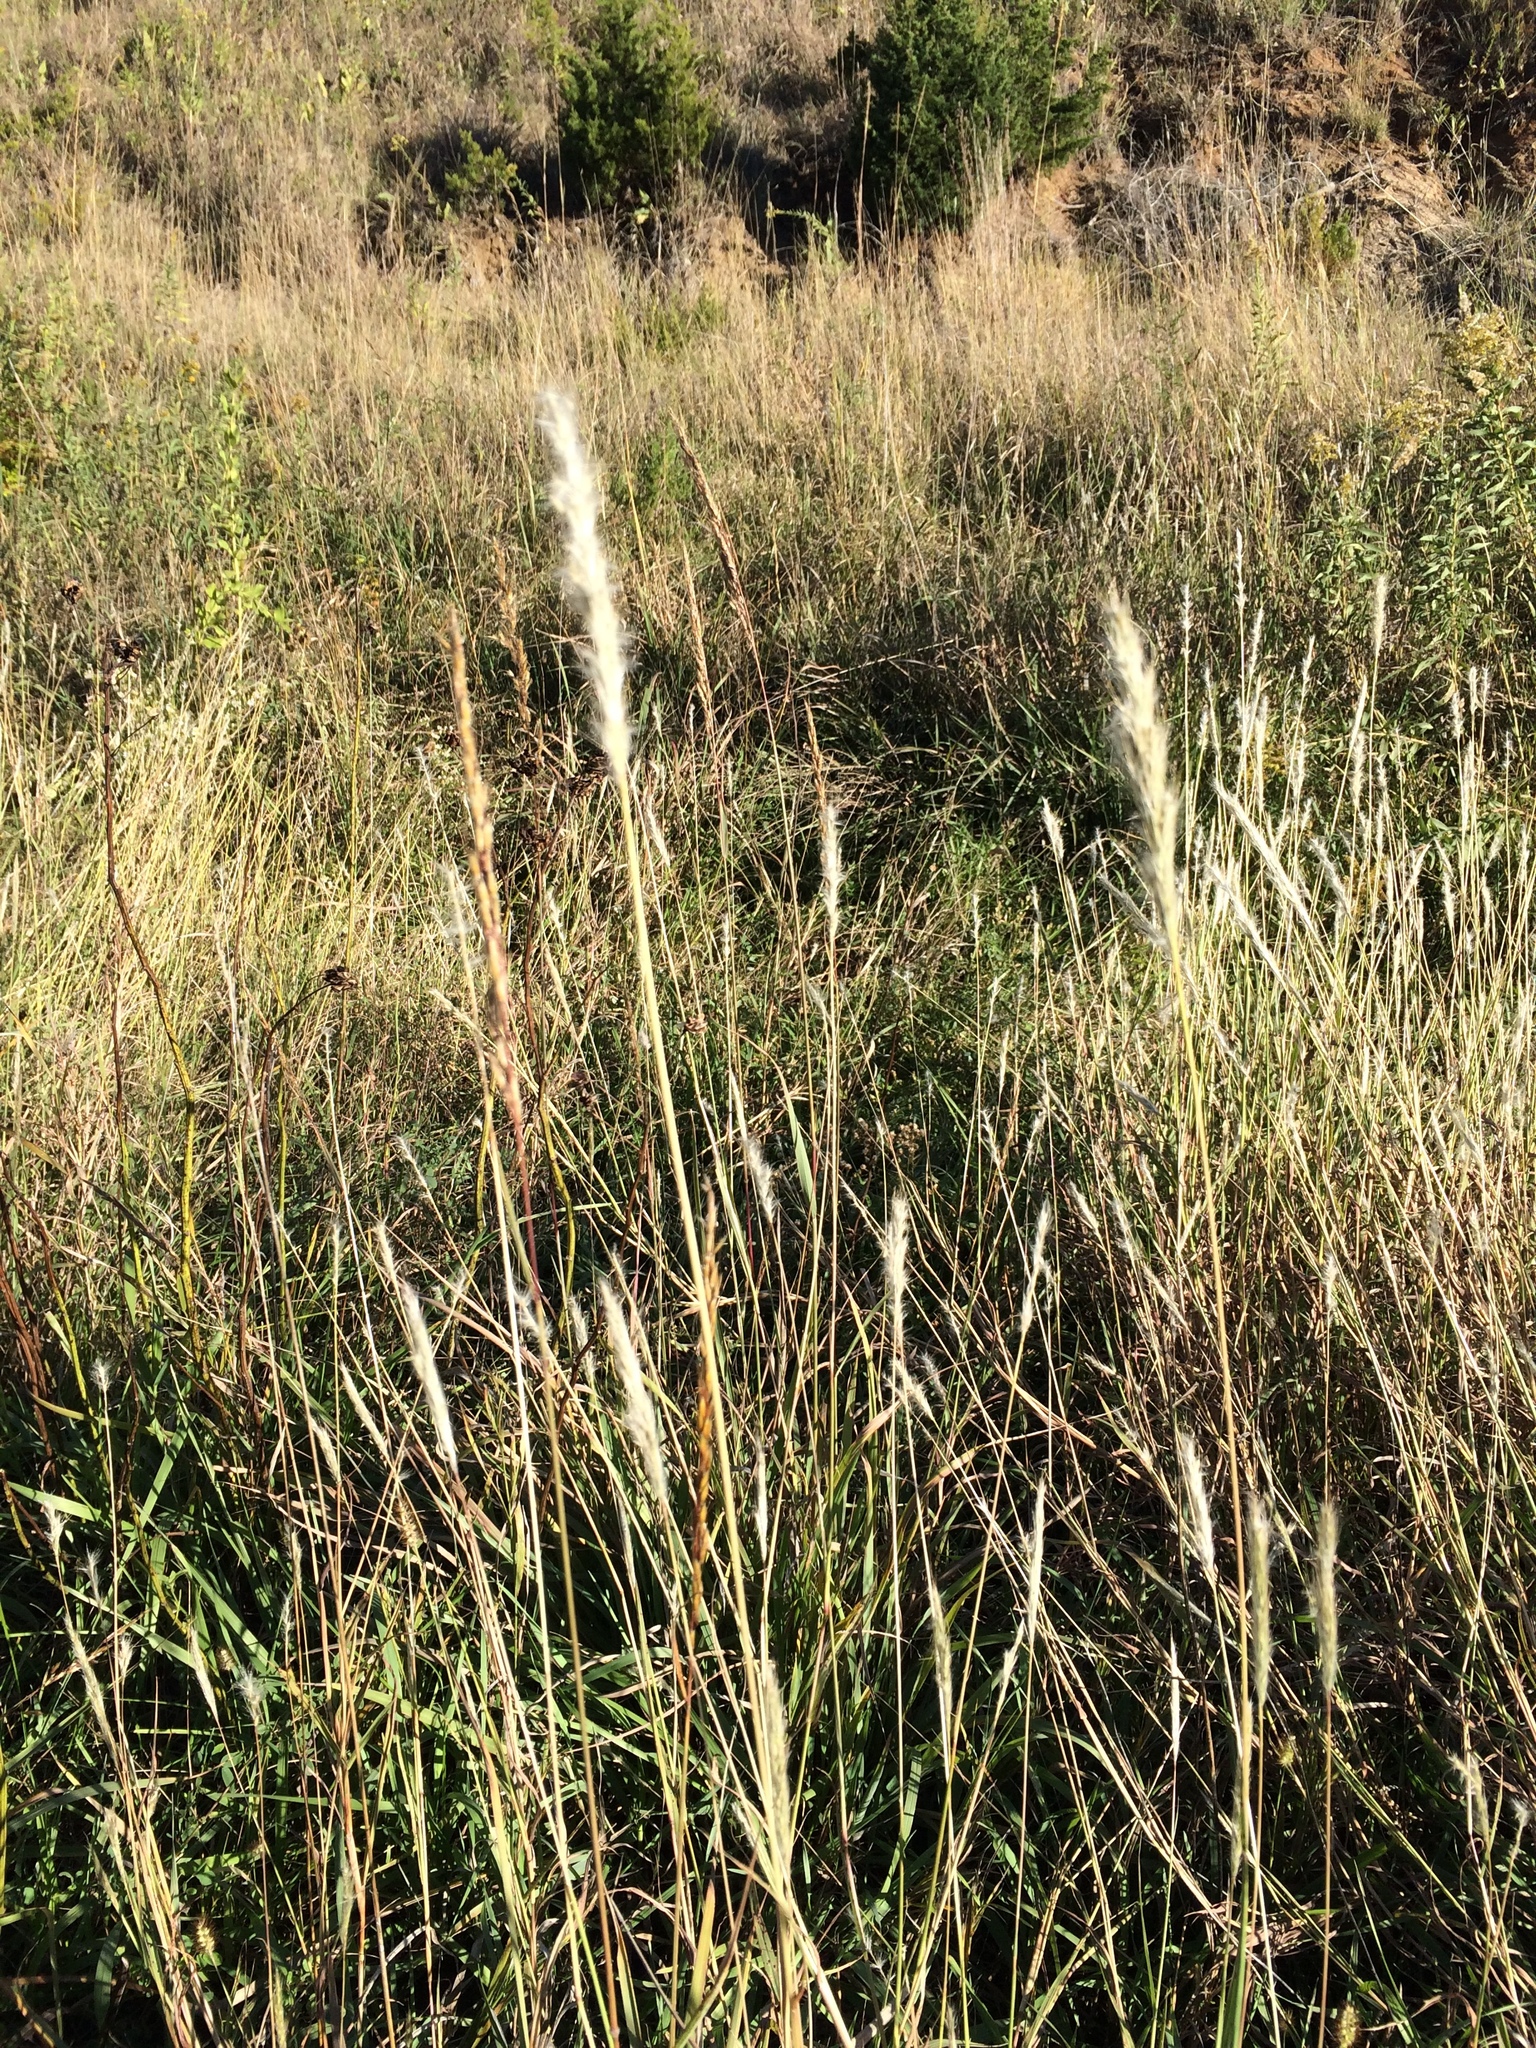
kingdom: Plantae
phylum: Tracheophyta
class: Liliopsida
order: Poales
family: Poaceae
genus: Bothriochloa
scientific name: Bothriochloa torreyana
